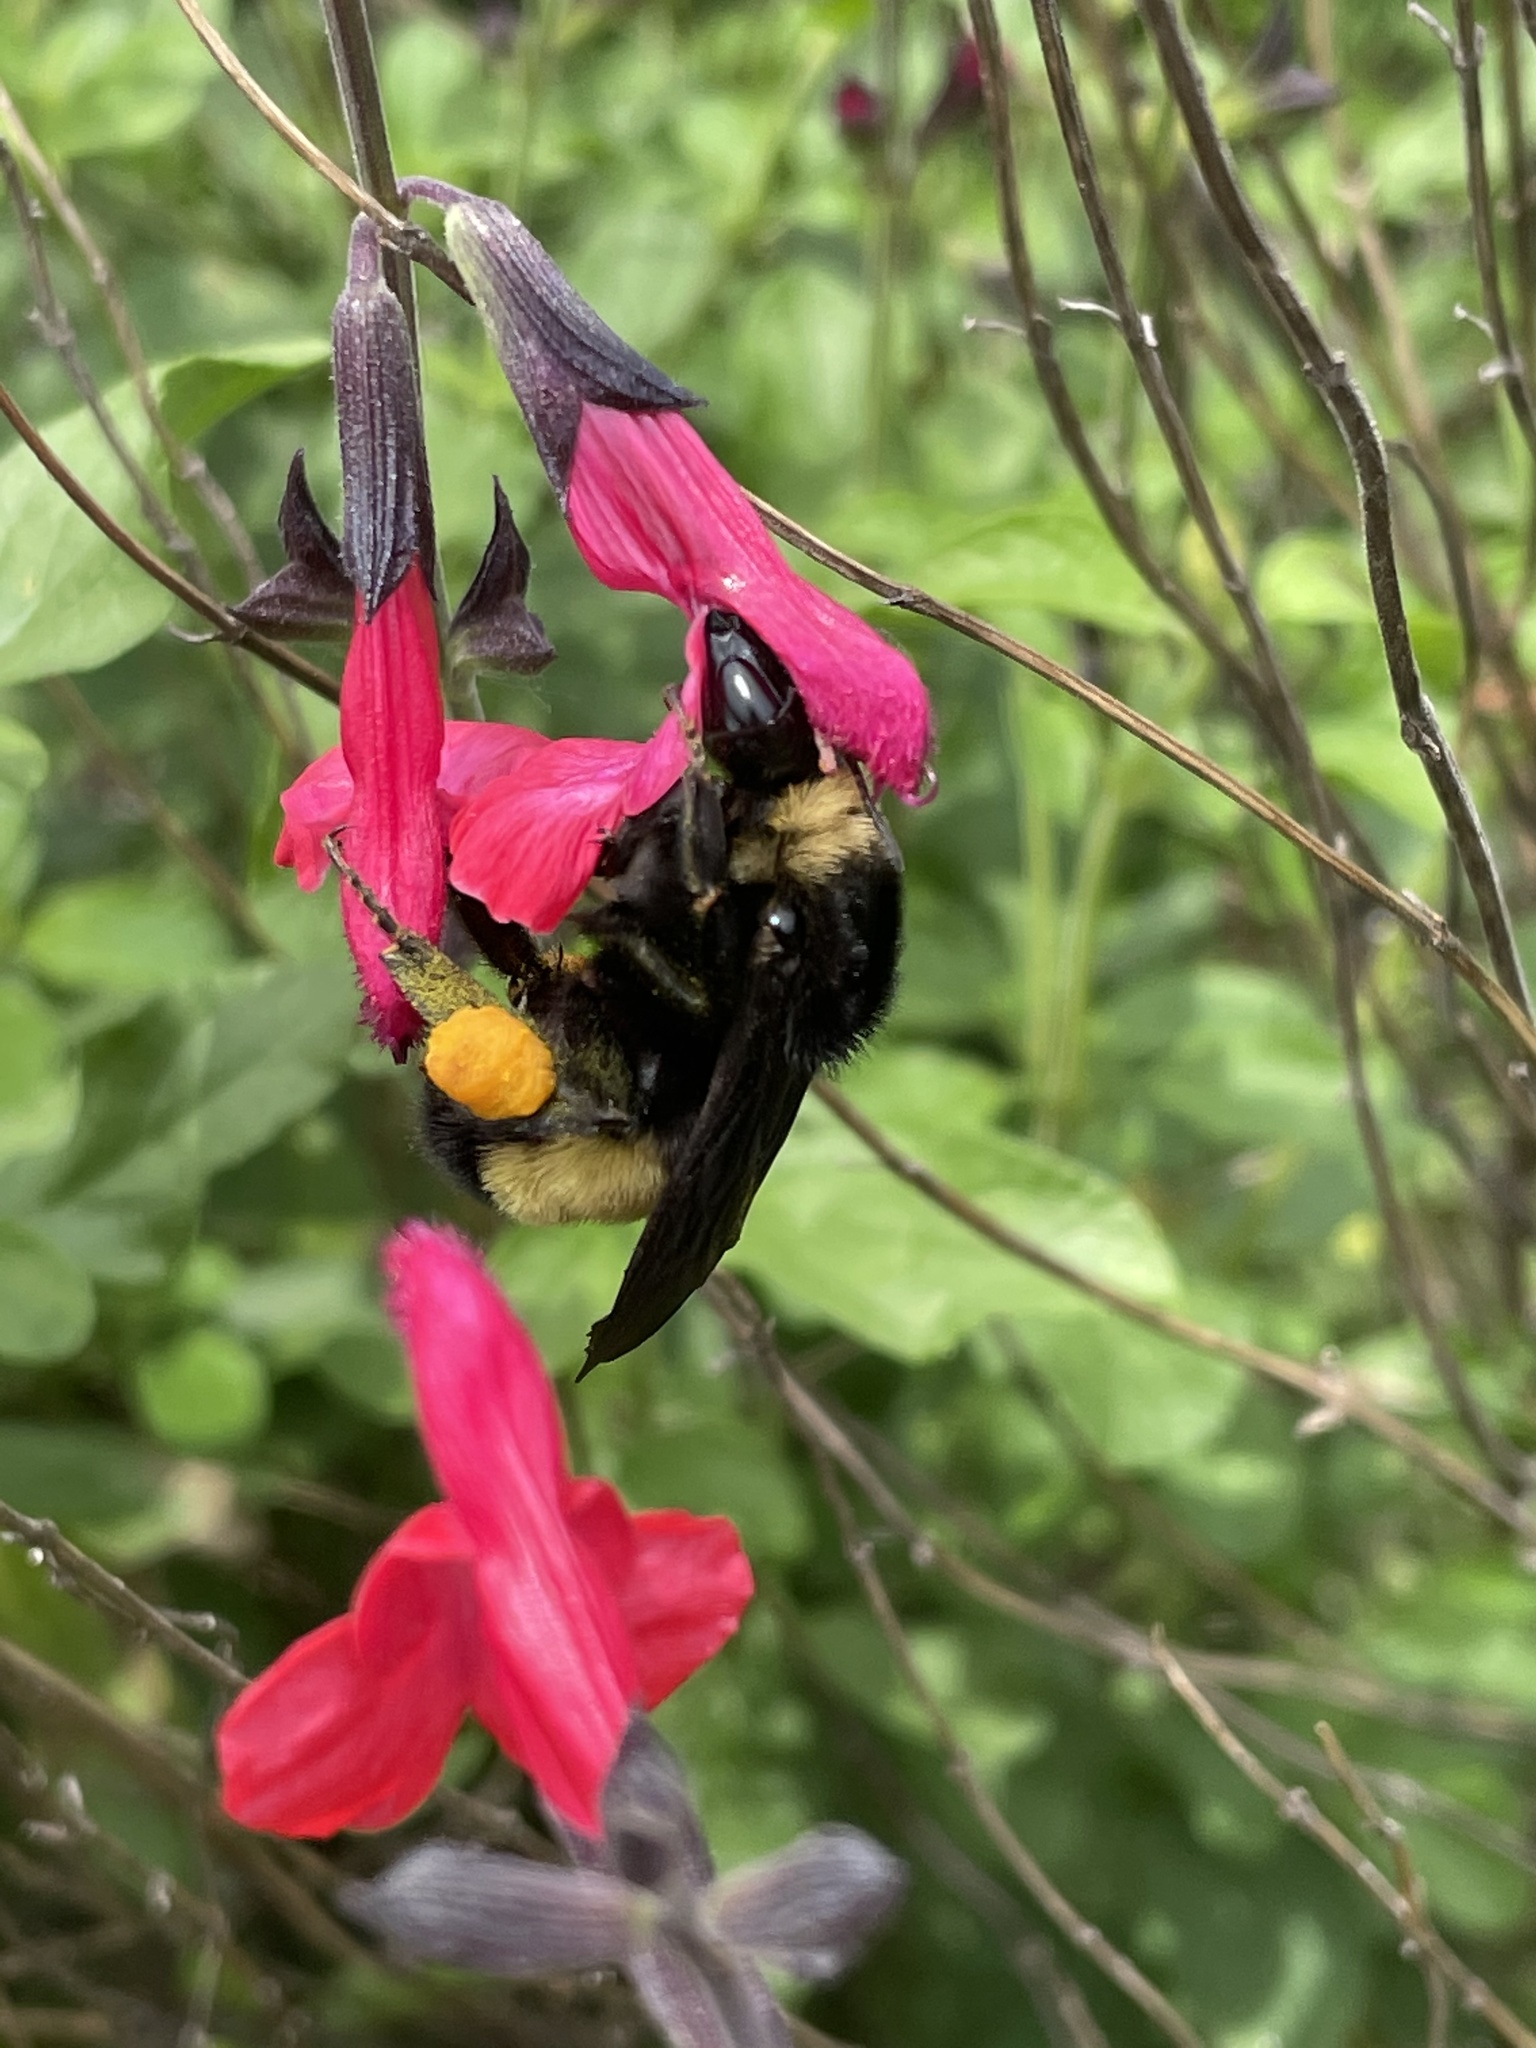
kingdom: Animalia
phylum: Arthropoda
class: Insecta
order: Hymenoptera
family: Apidae
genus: Bombus
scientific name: Bombus pensylvanicus
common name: Bumble bee
